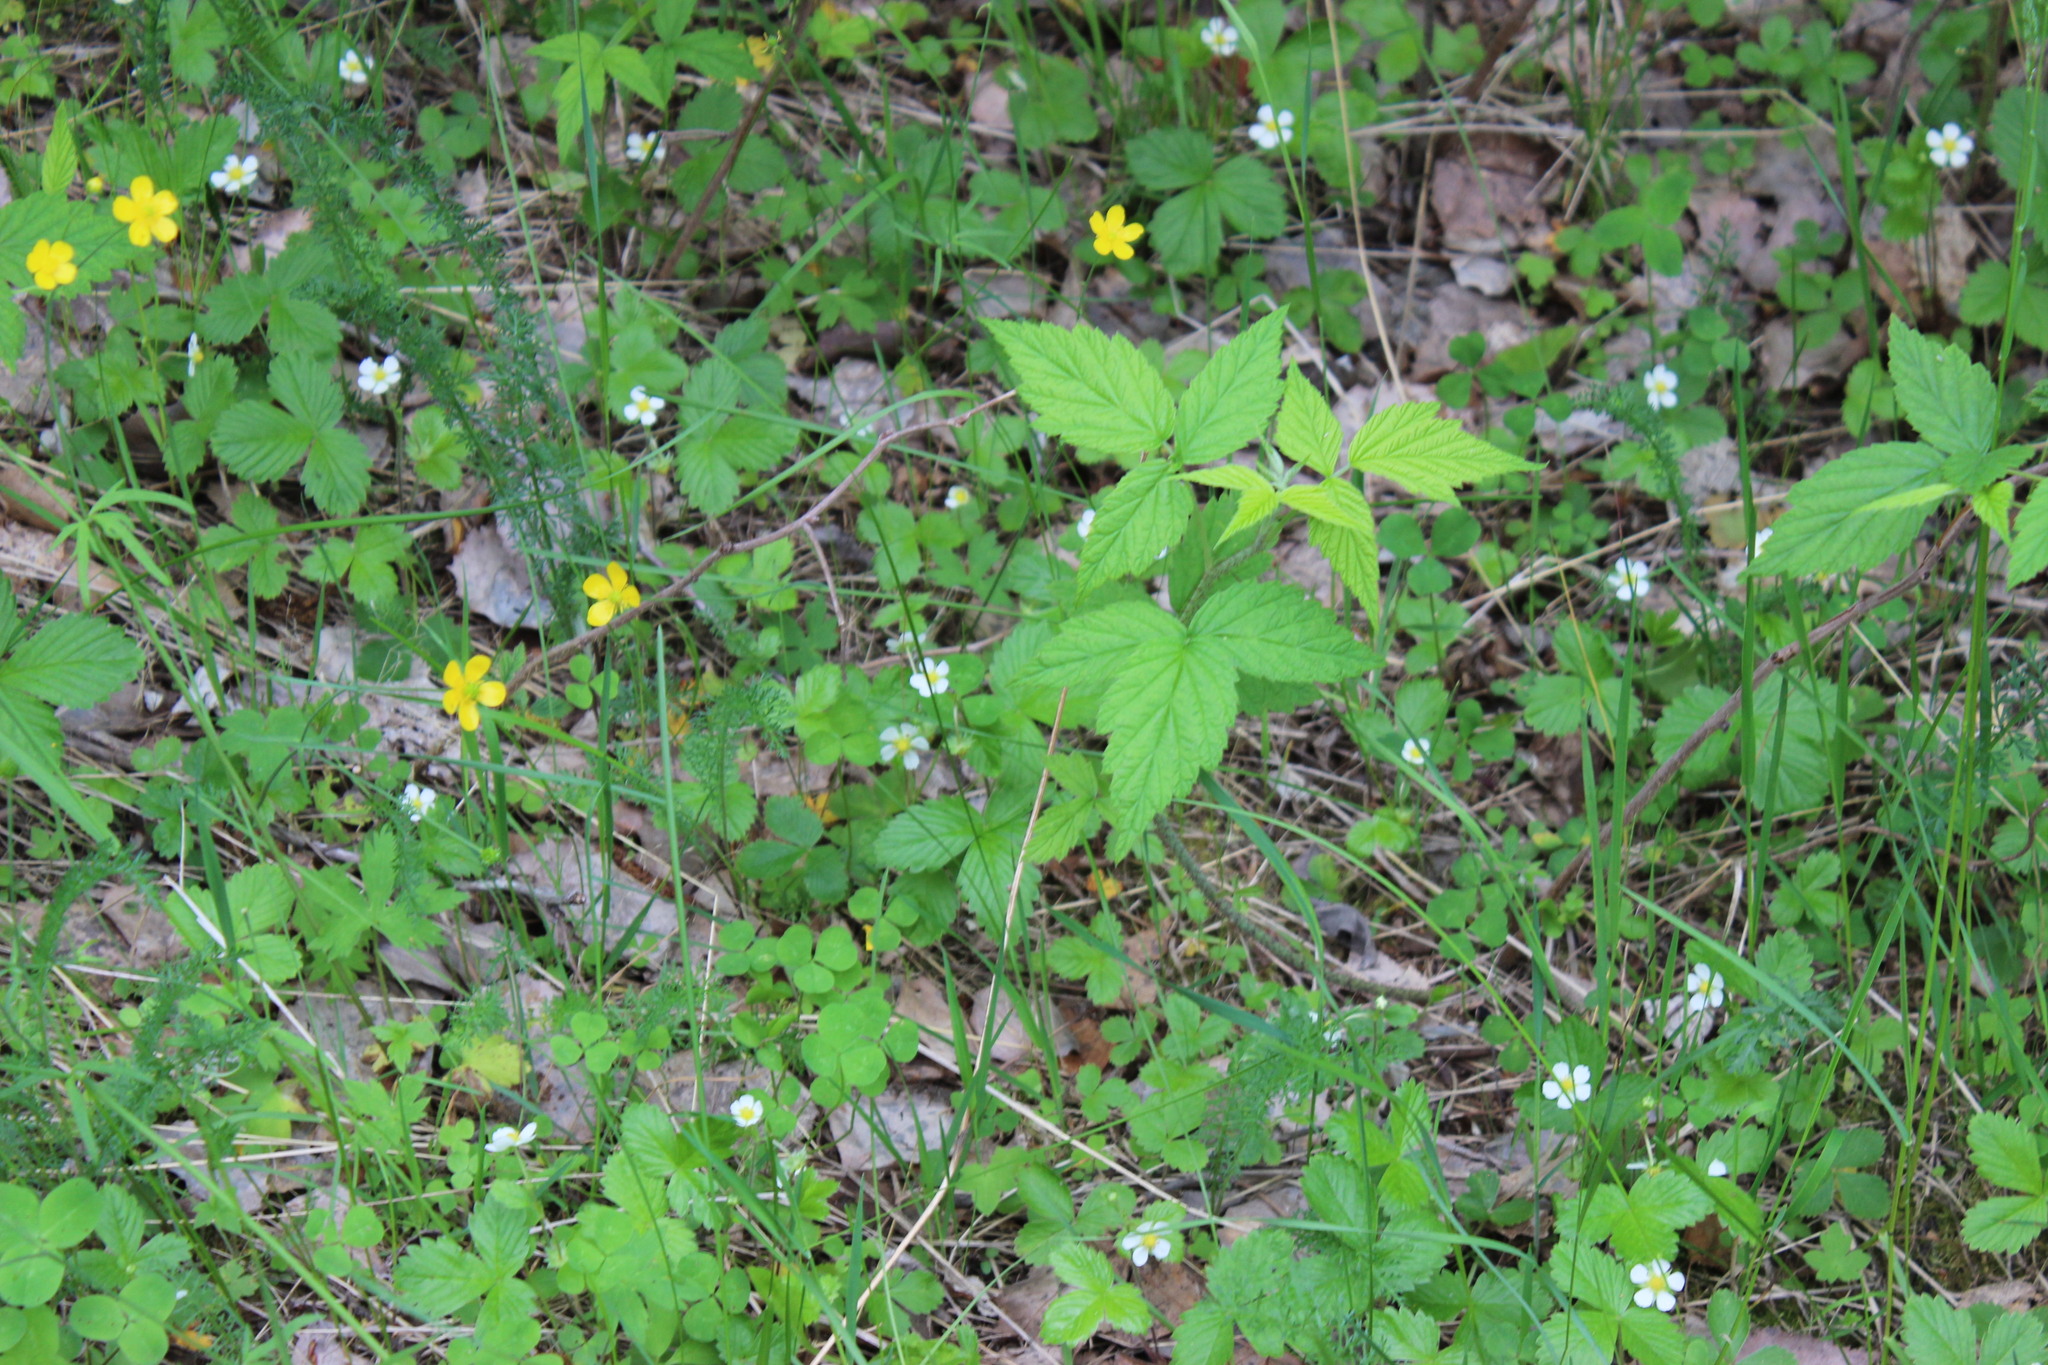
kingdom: Plantae
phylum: Tracheophyta
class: Magnoliopsida
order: Rosales
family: Rosaceae
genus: Rubus
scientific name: Rubus idaeus
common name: Raspberry
